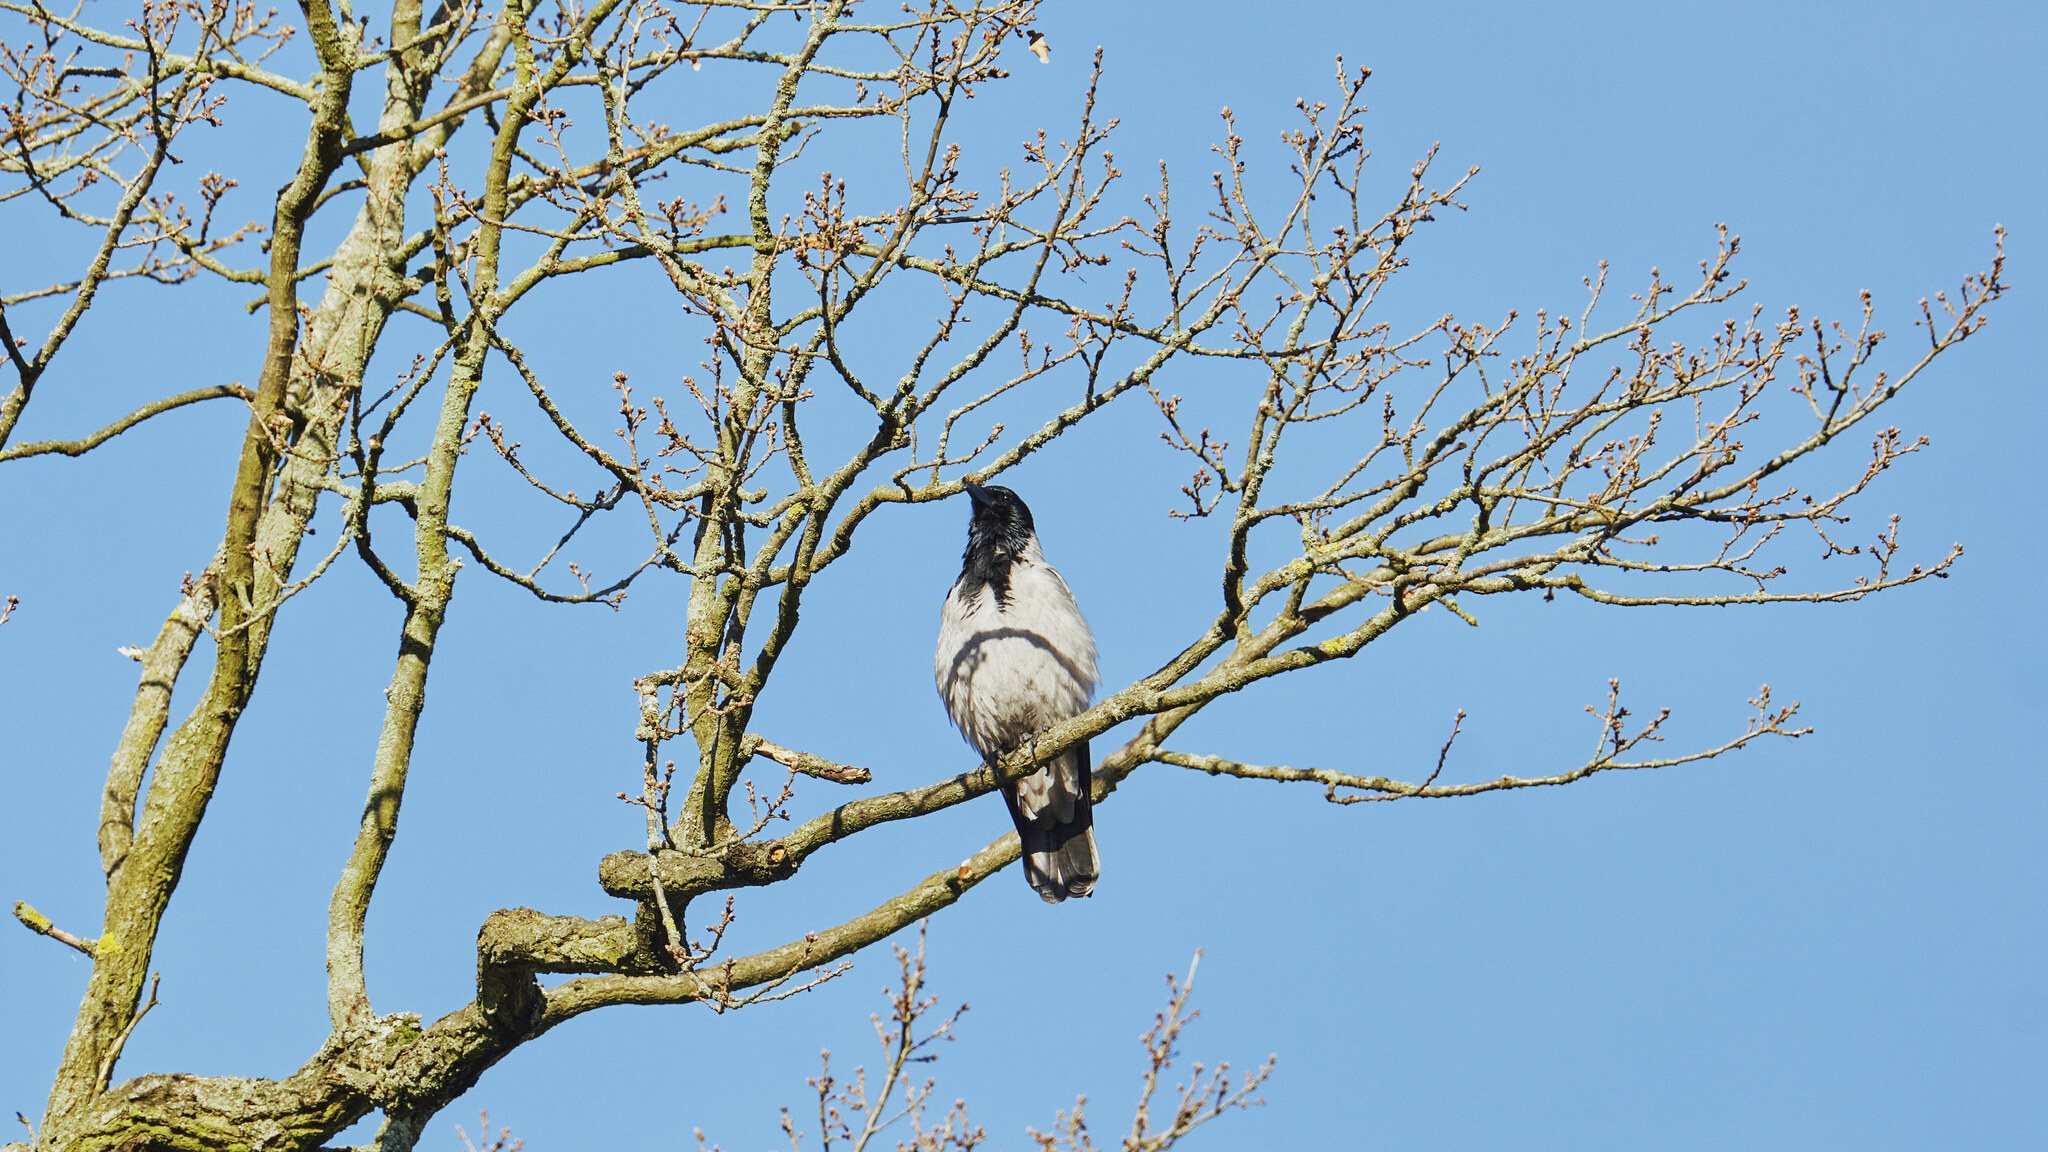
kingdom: Animalia
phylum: Chordata
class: Aves
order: Passeriformes
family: Corvidae
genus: Corvus
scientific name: Corvus cornix
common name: Hooded crow
